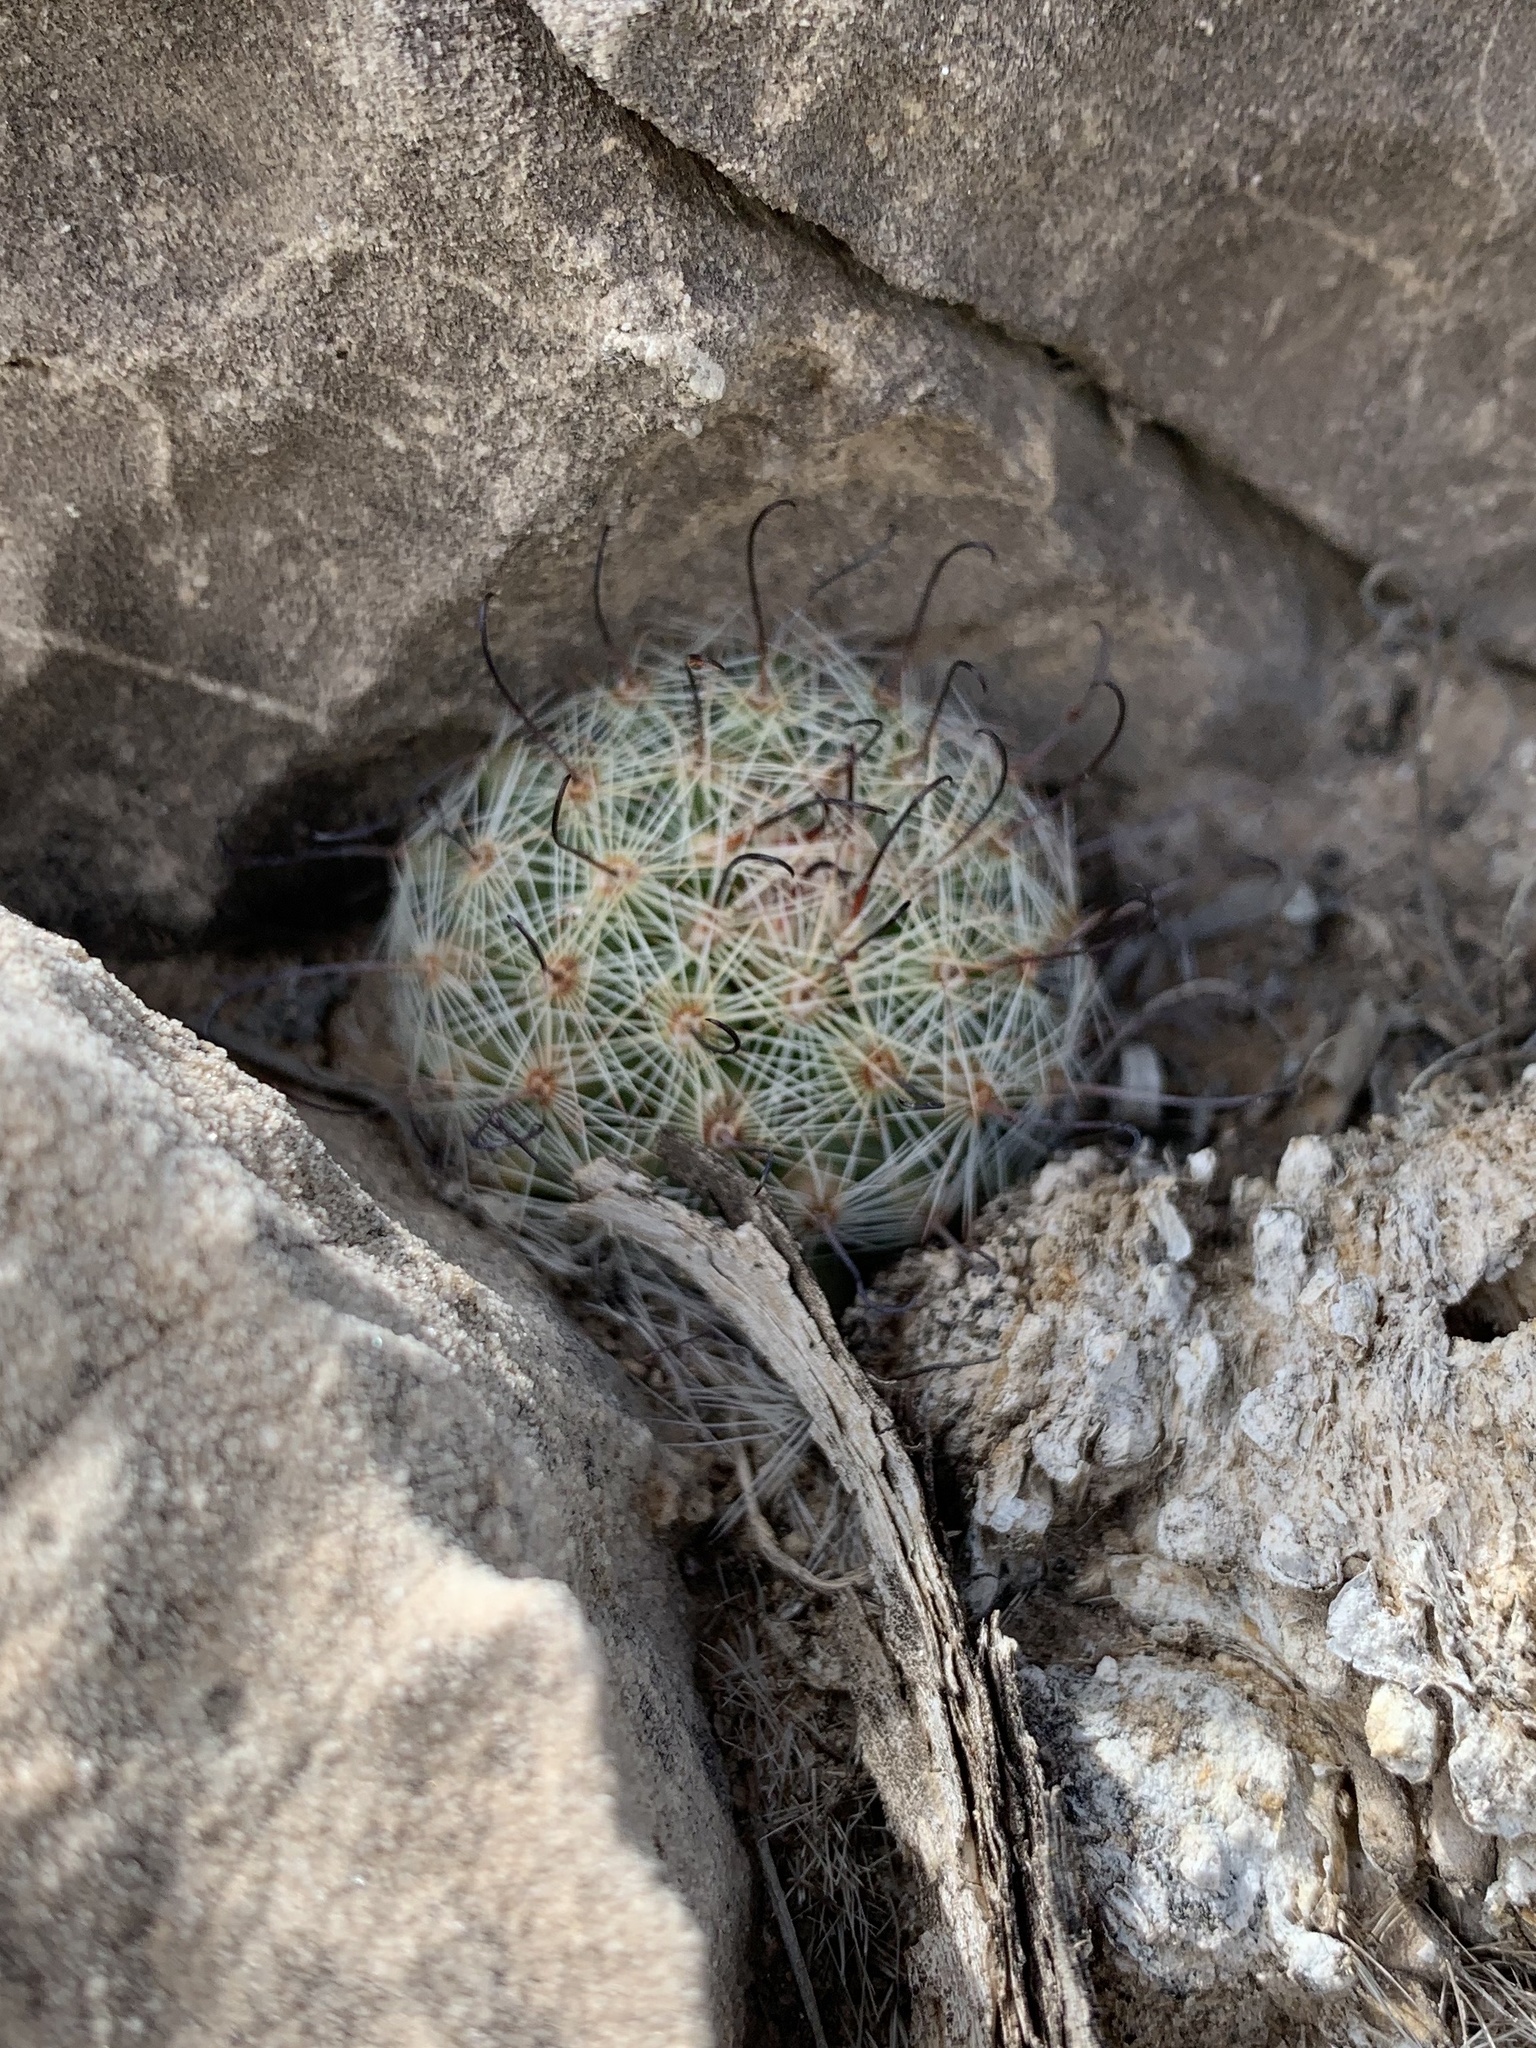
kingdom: Plantae
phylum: Tracheophyta
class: Magnoliopsida
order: Caryophyllales
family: Cactaceae
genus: Cochemiea
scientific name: Cochemiea grahamii
